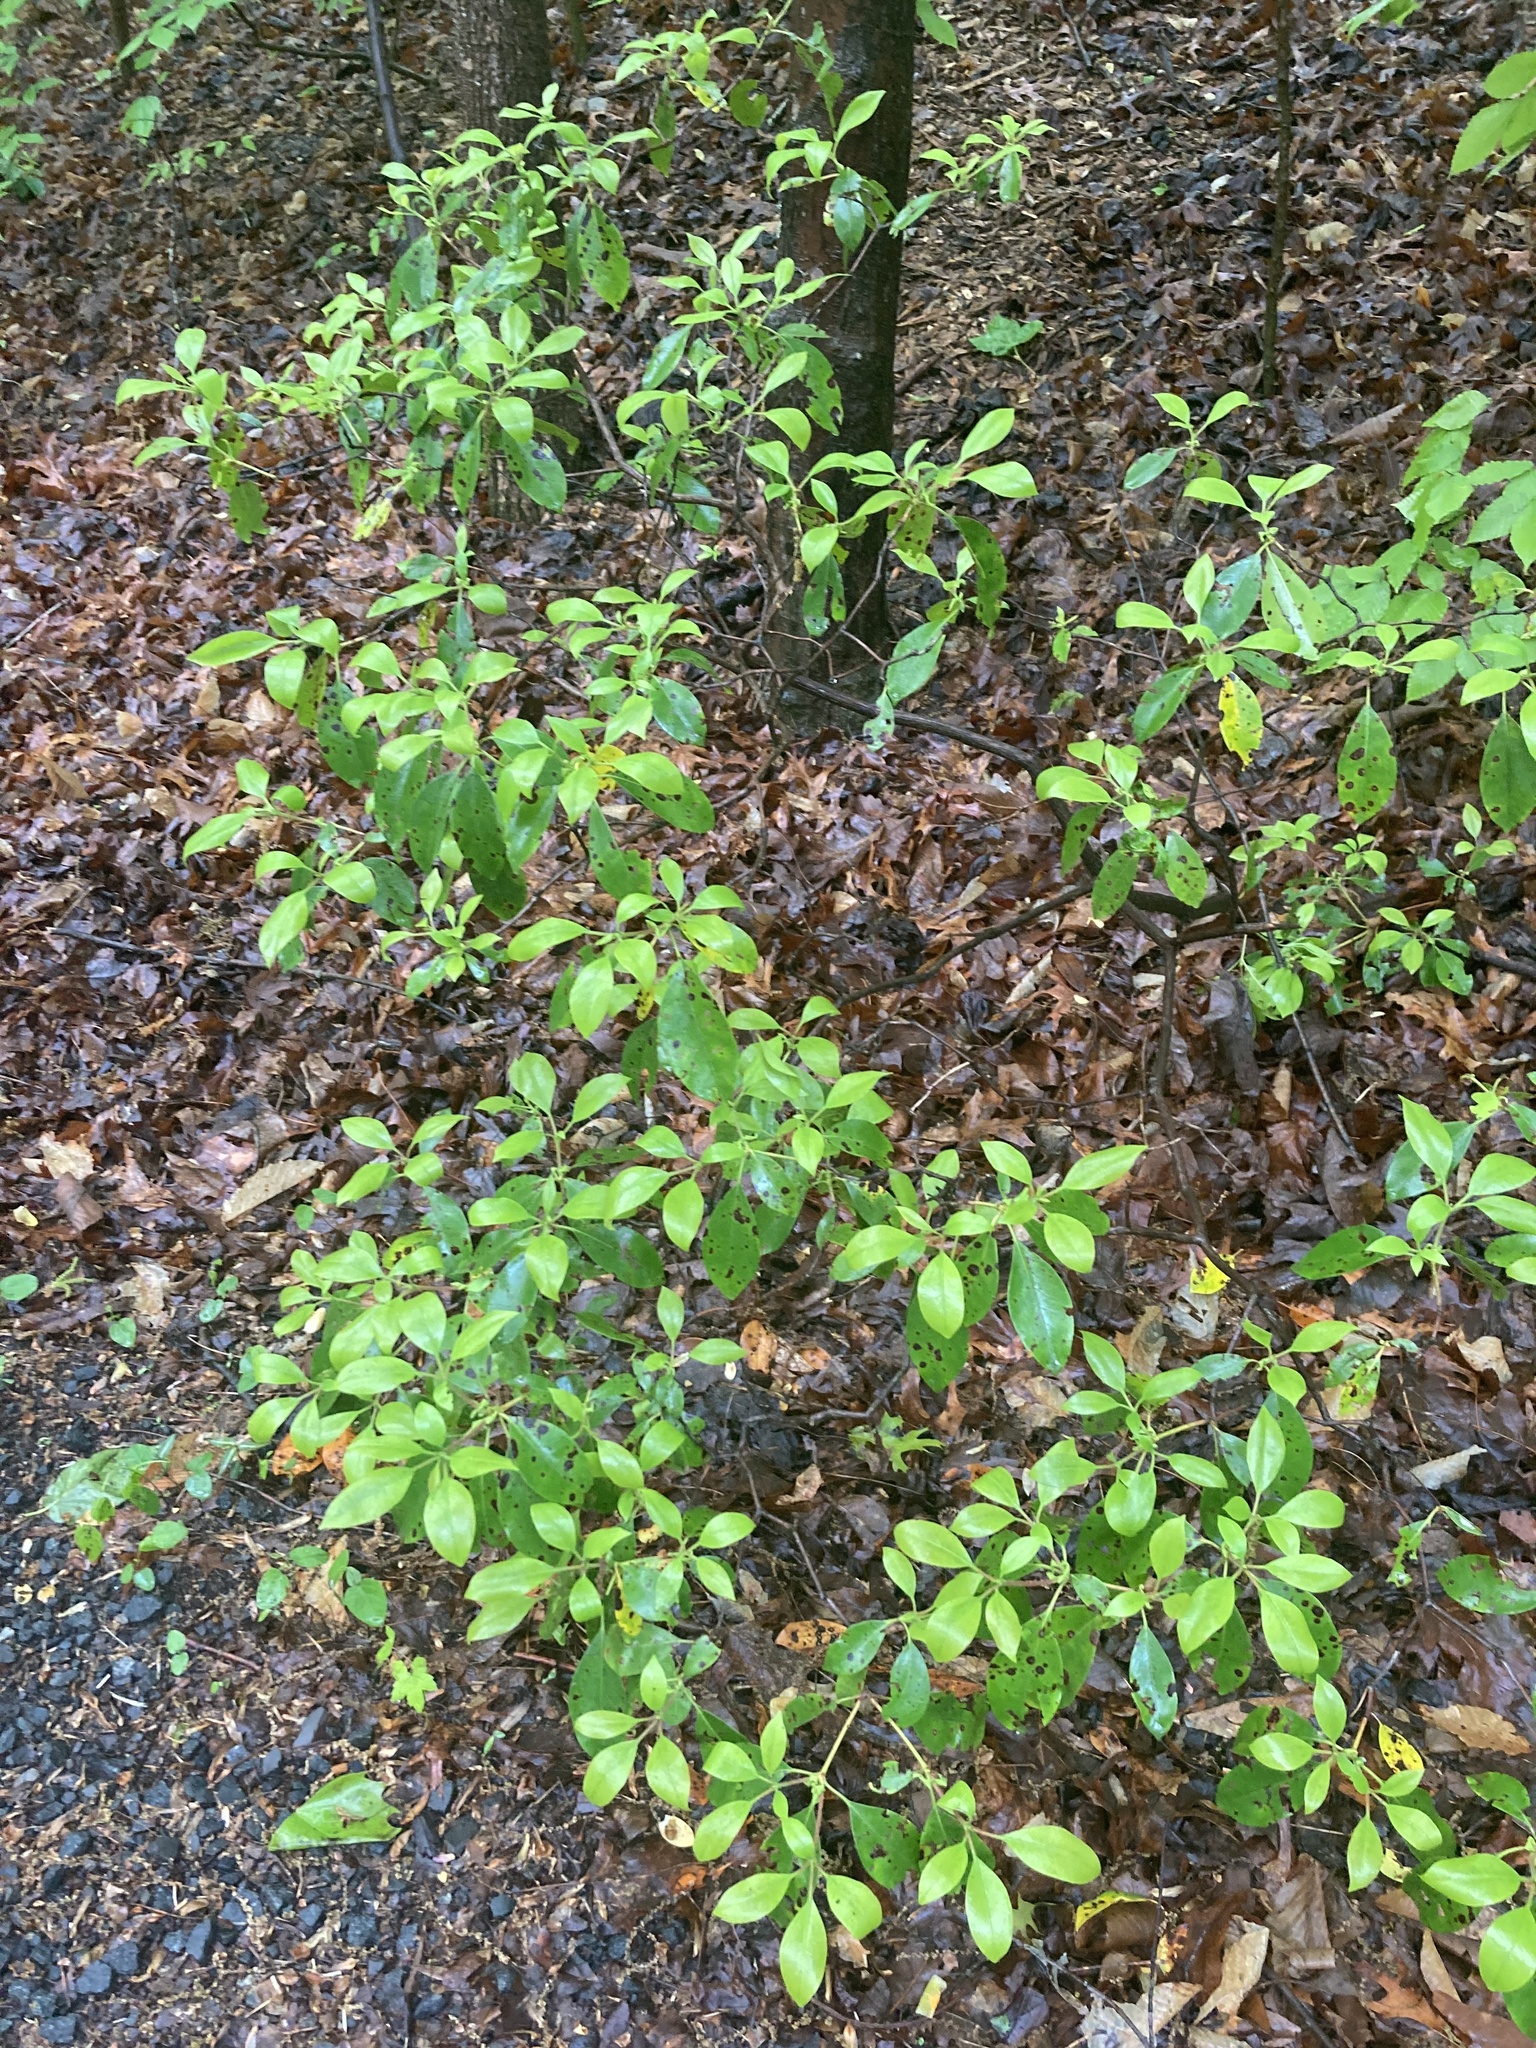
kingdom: Plantae
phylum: Tracheophyta
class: Magnoliopsida
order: Ericales
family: Ericaceae
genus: Kalmia
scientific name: Kalmia latifolia
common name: Mountain-laurel
